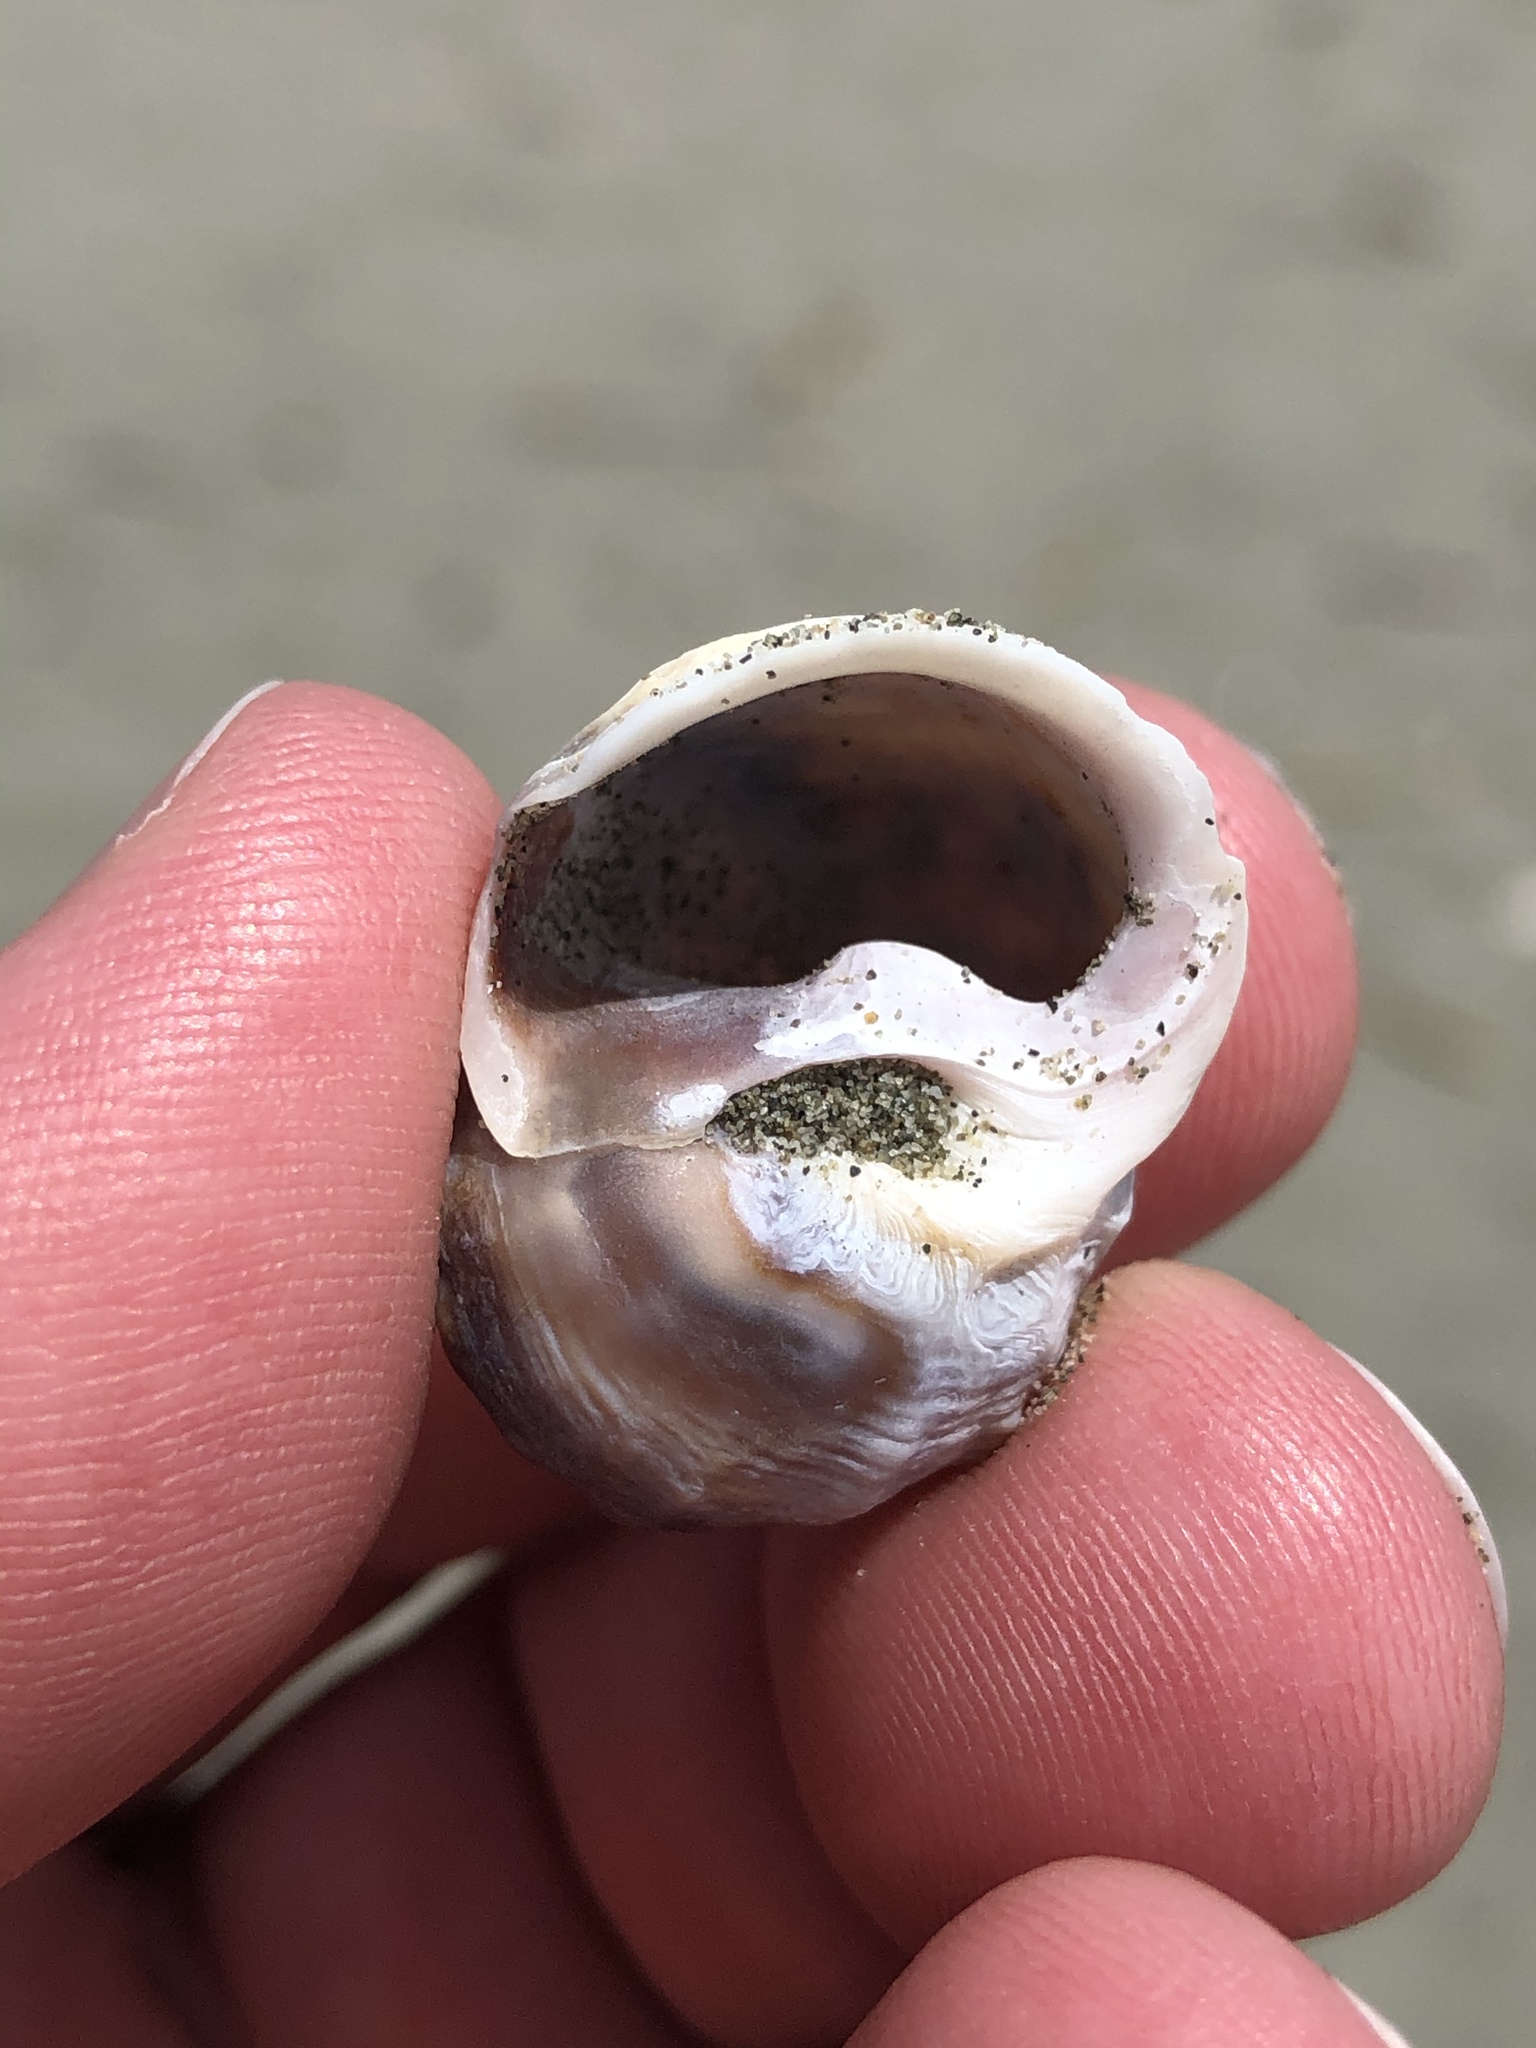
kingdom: Animalia
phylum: Mollusca
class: Gastropoda
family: Amphibolidae
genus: Amphibola
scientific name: Amphibola crenata
